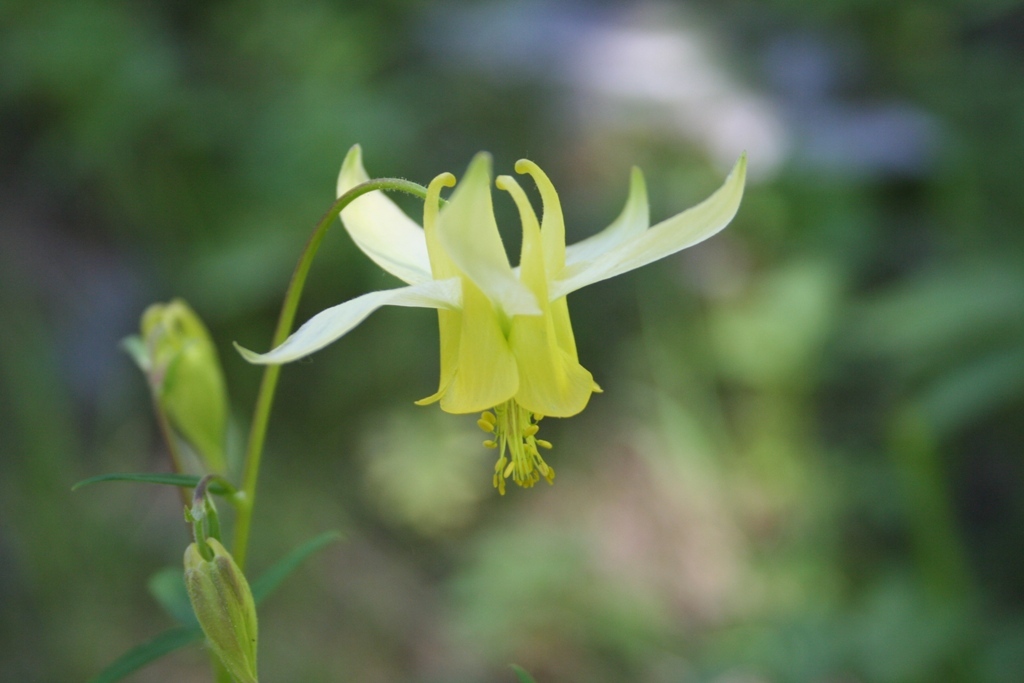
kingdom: Plantae
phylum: Tracheophyta
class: Magnoliopsida
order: Ranunculales
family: Ranunculaceae
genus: Aquilegia
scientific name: Aquilegia flavescens
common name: Yellow columbine
